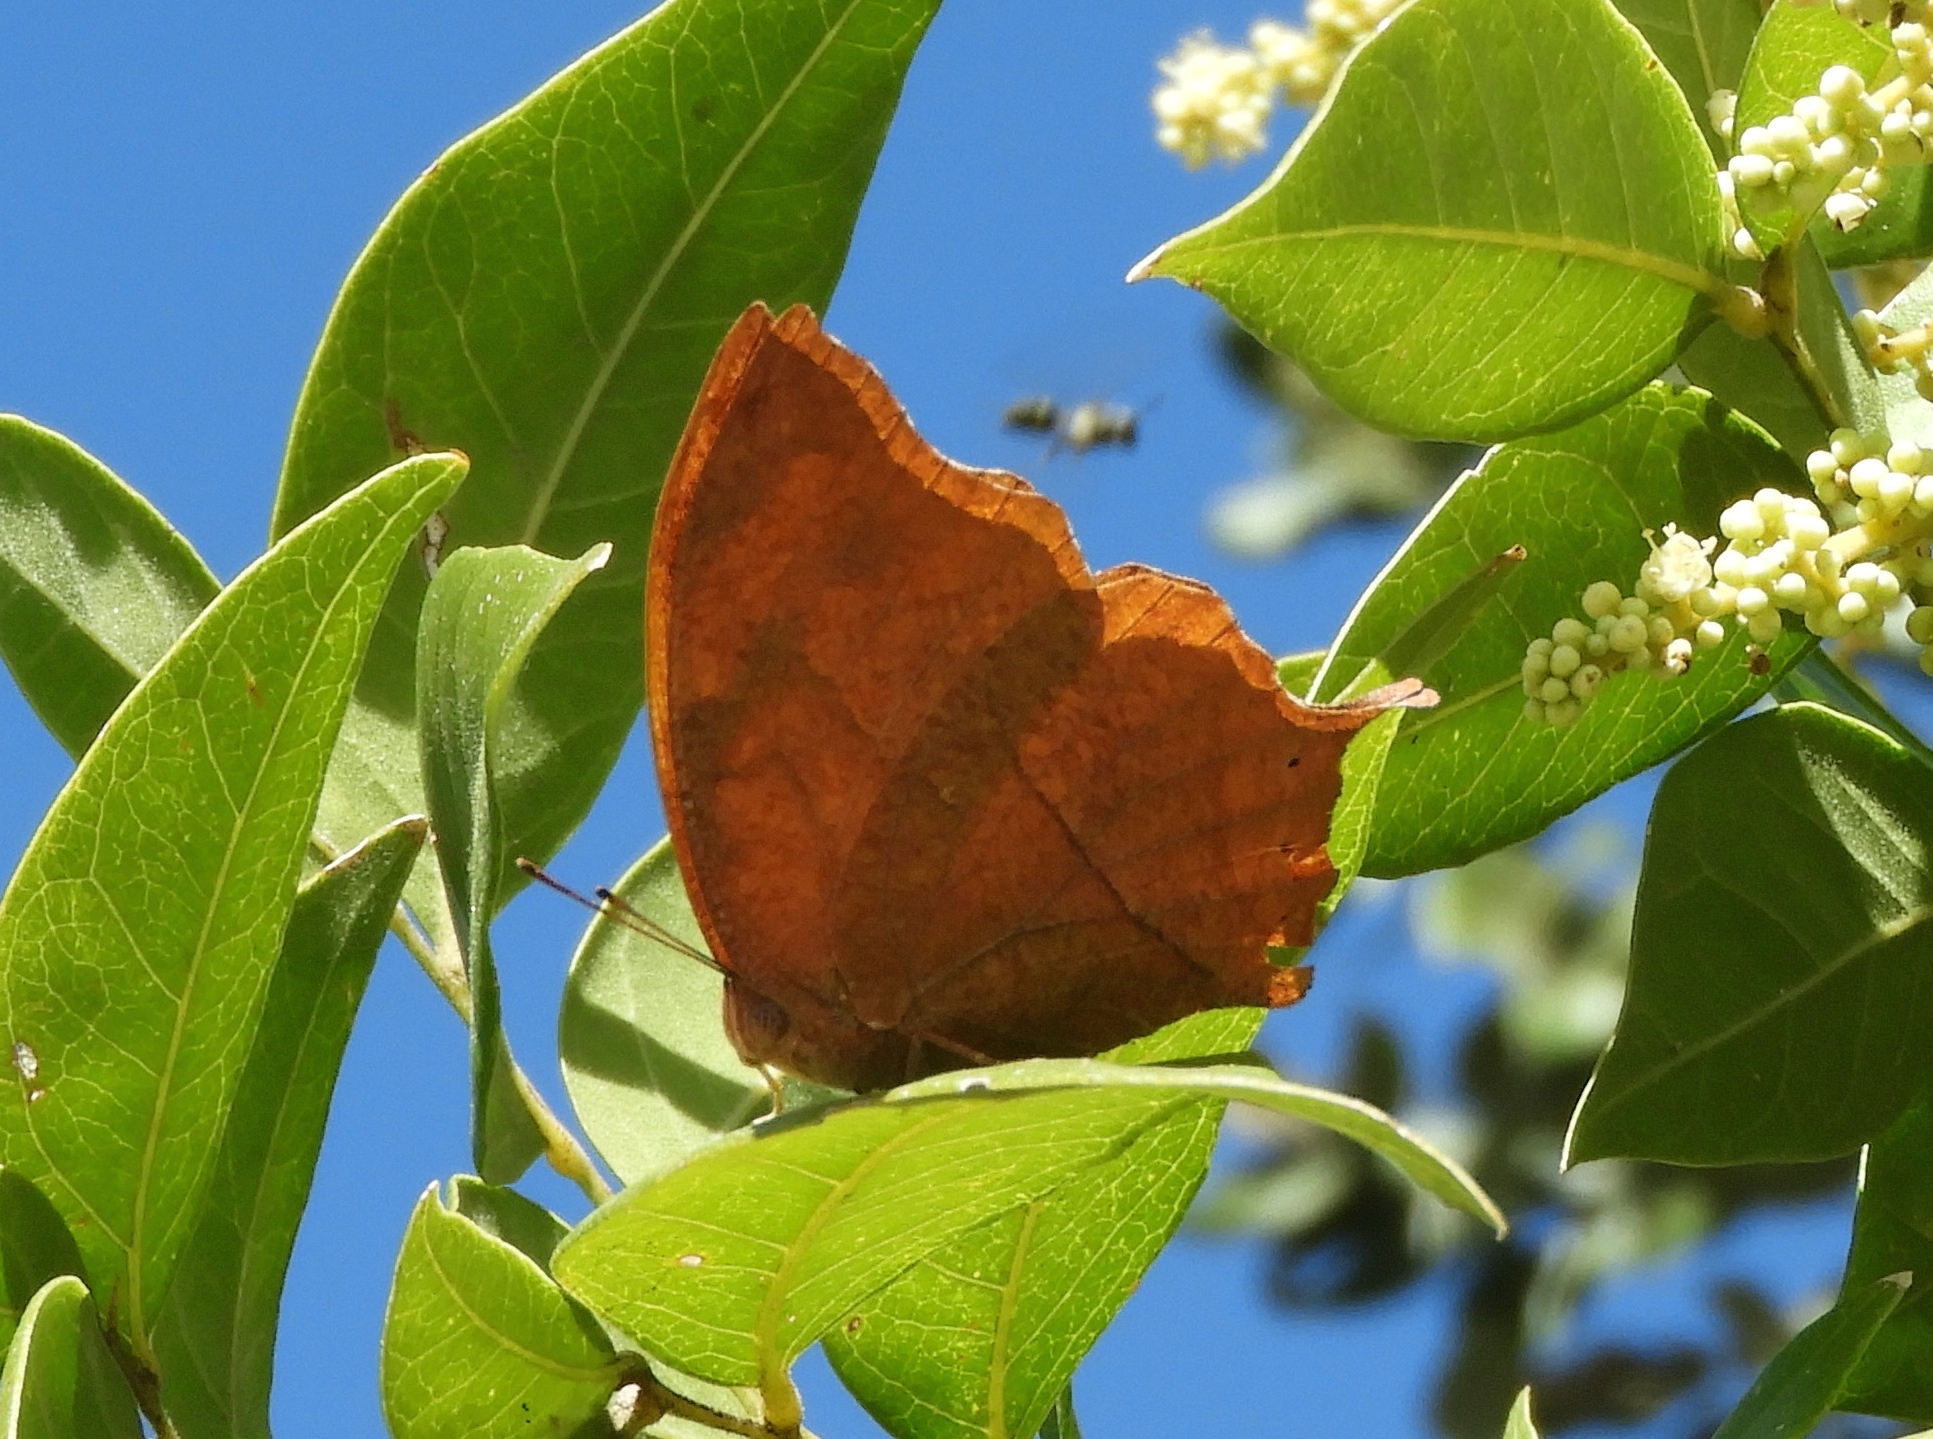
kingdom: Animalia
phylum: Arthropoda
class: Insecta
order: Lepidoptera
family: Nymphalidae
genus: Fountainea
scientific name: Fountainea
